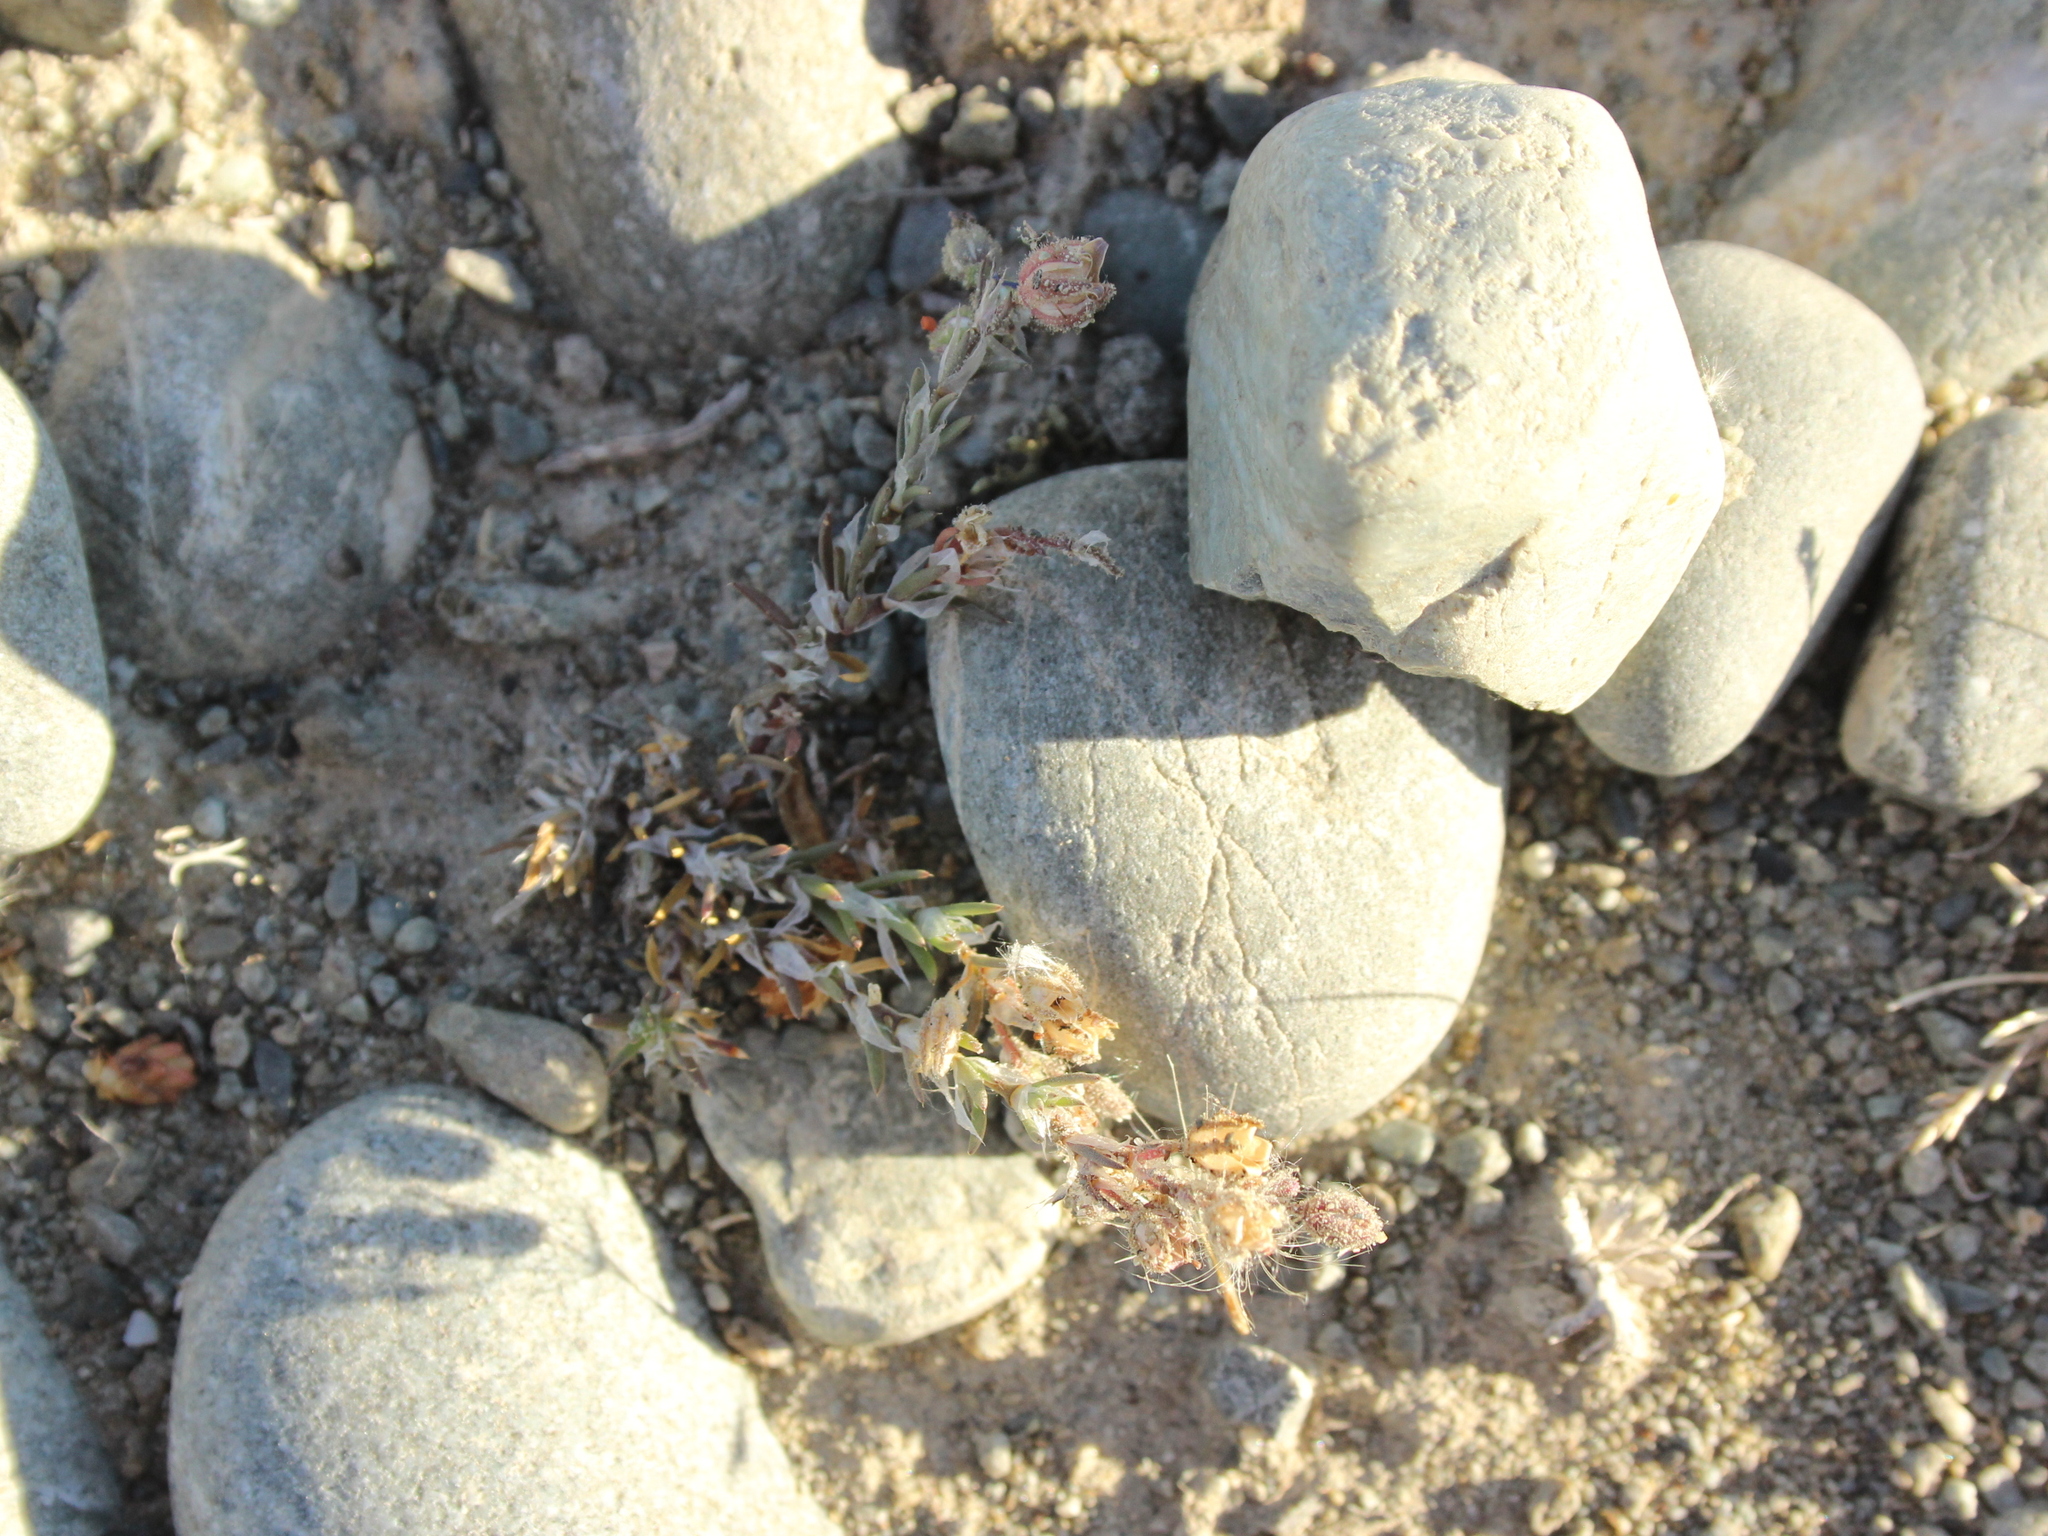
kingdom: Plantae
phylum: Tracheophyta
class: Magnoliopsida
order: Caryophyllales
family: Caryophyllaceae
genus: Spergularia
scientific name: Spergularia rubra
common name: Red sand-spurrey
